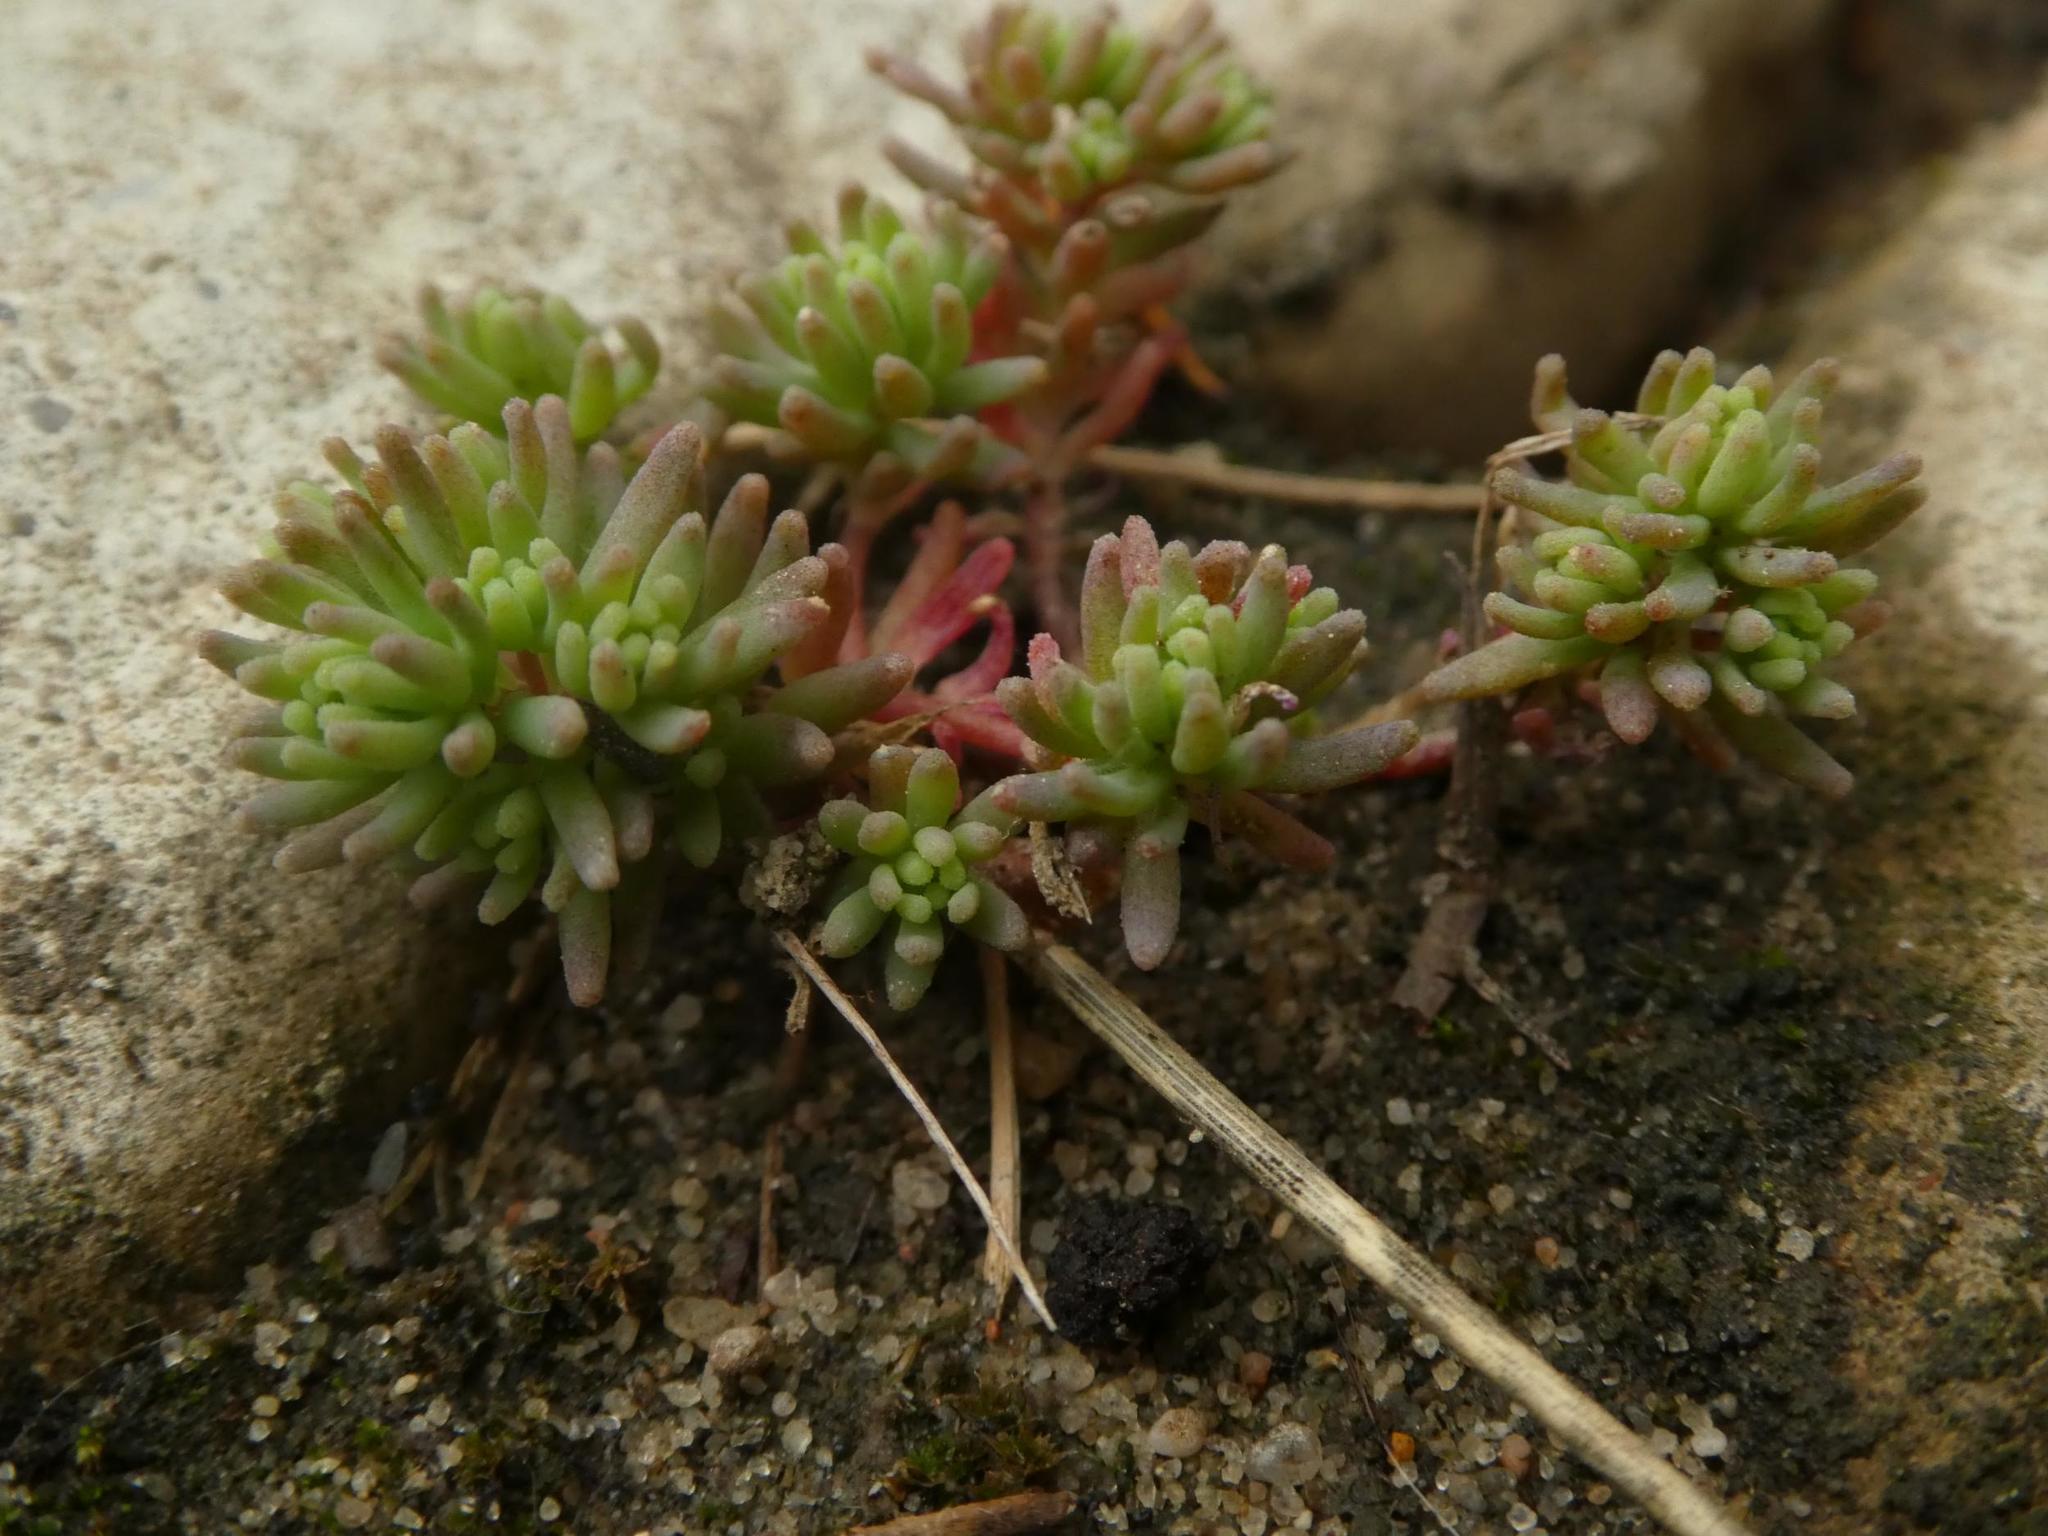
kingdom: Plantae
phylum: Tracheophyta
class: Magnoliopsida
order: Saxifragales
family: Crassulaceae
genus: Sedum
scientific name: Sedum hispanicum
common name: Spanish stonecrop
